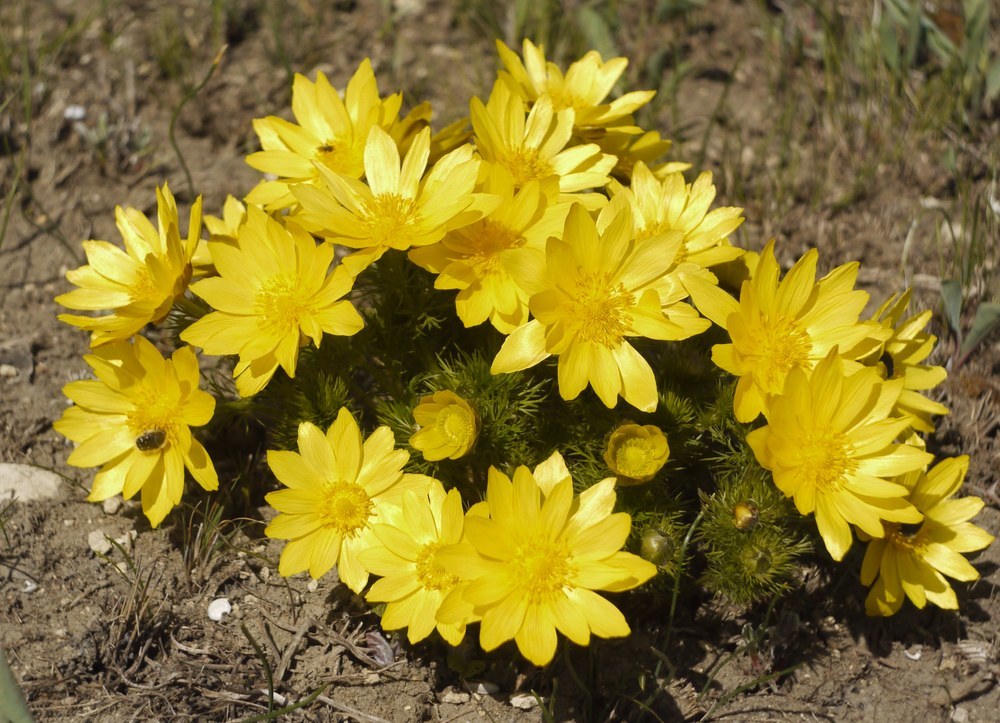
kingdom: Plantae
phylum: Tracheophyta
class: Magnoliopsida
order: Ranunculales
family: Ranunculaceae
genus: Adonis
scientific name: Adonis vernalis
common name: Yellow pheasants-eye
